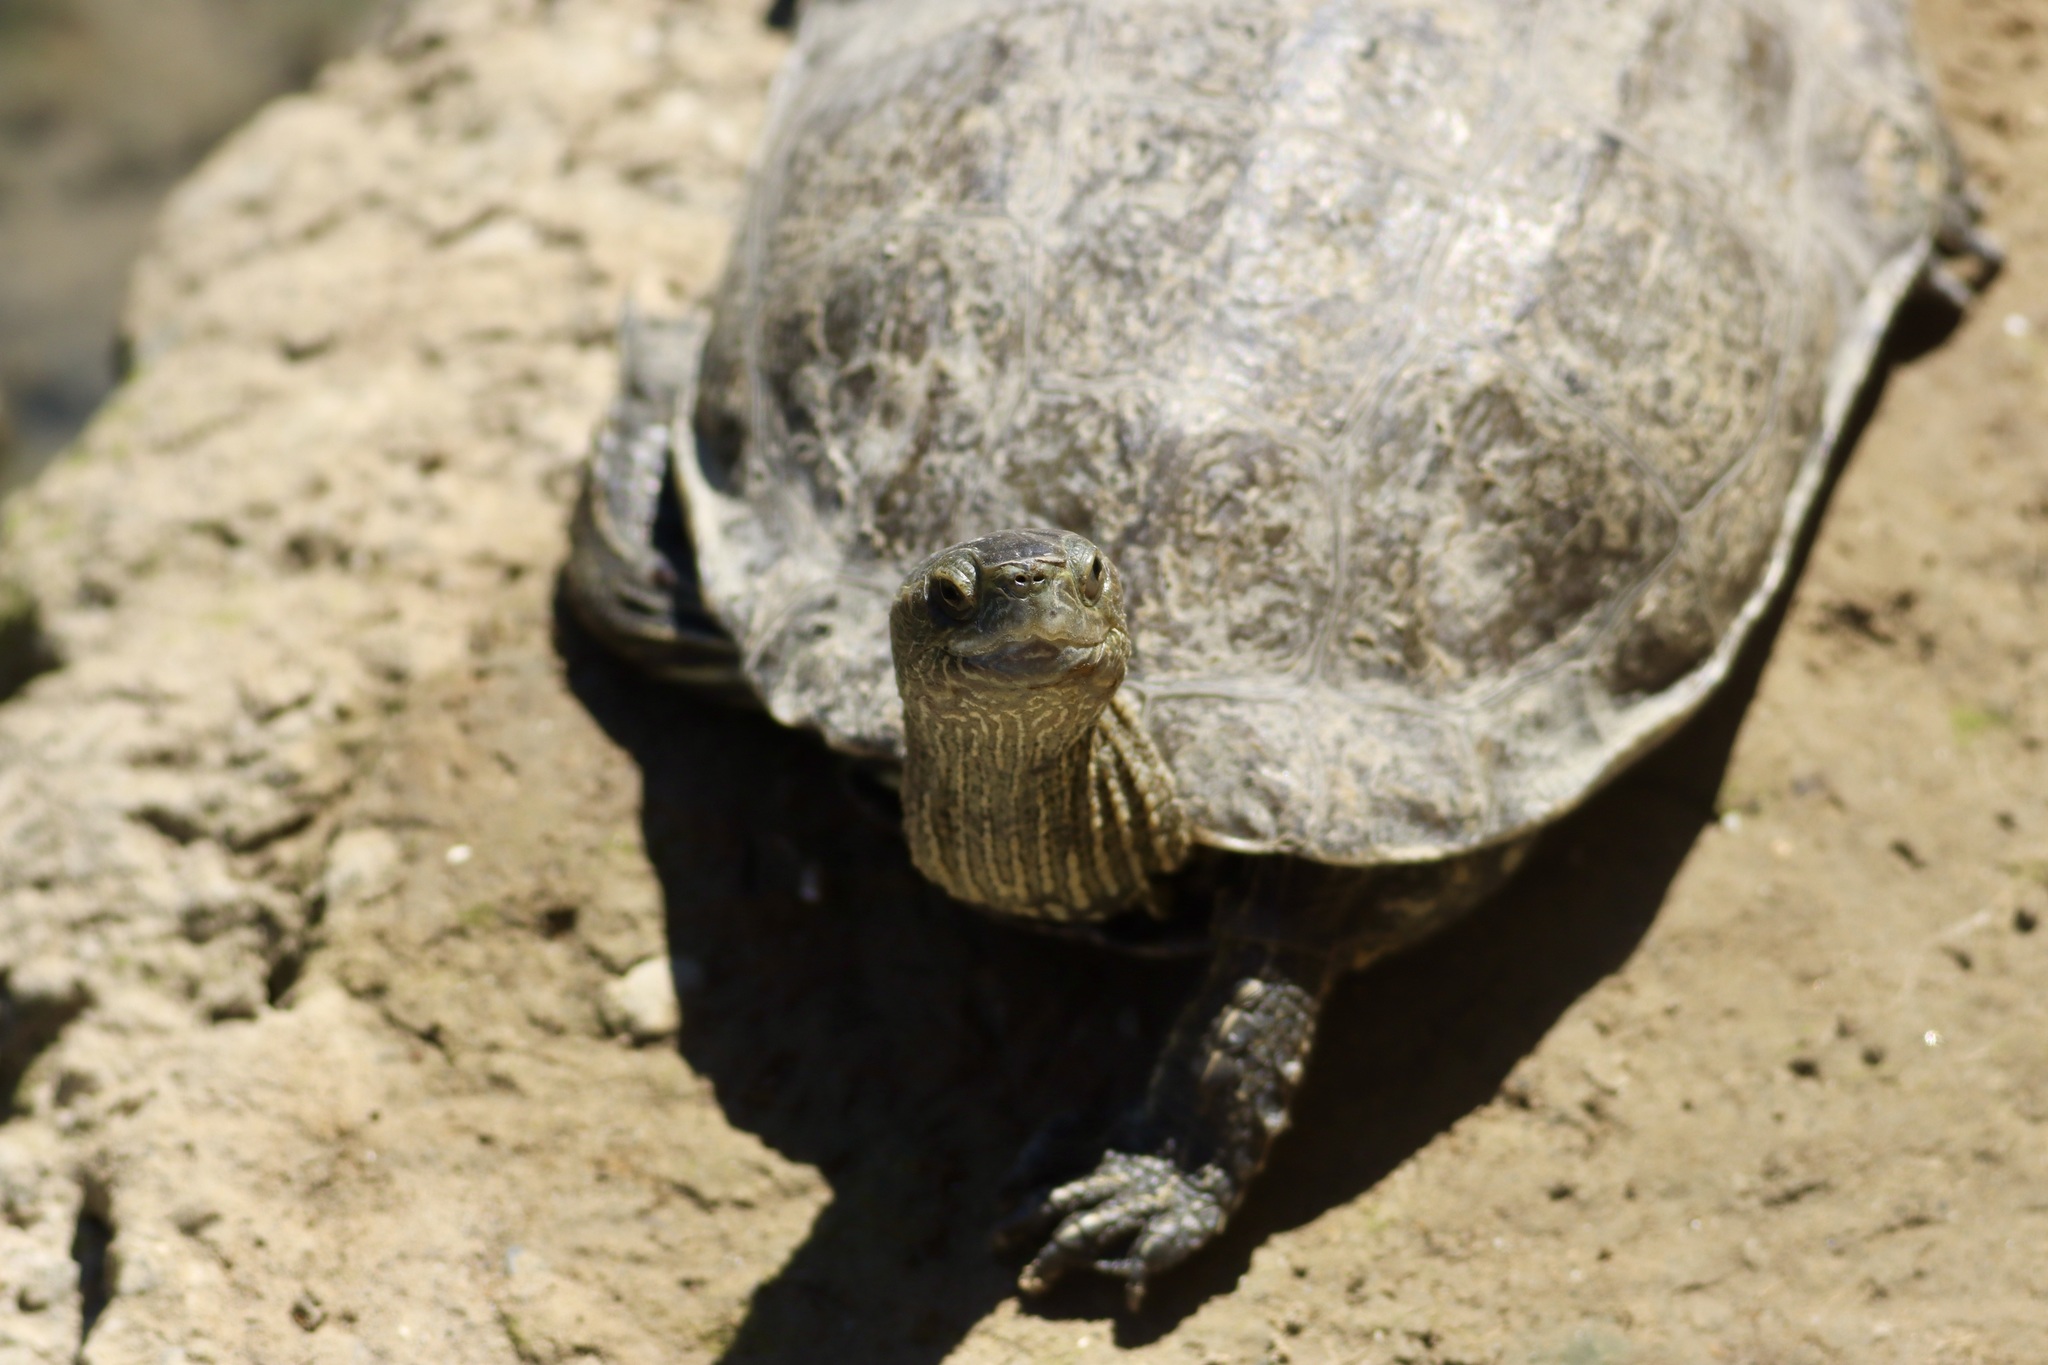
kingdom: Animalia
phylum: Chordata
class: Testudines
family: Geoemydidae
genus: Mauremys
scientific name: Mauremys rivulata
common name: Western caspian turtle
